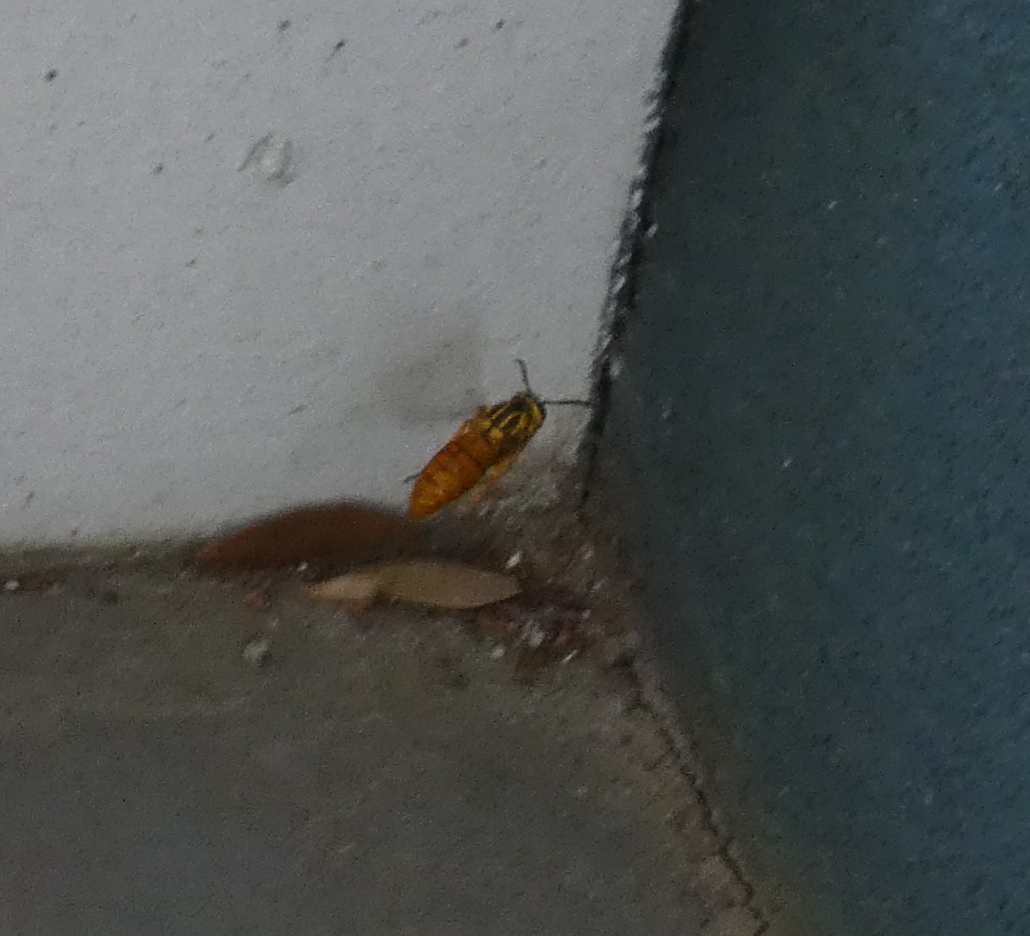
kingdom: Animalia
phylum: Arthropoda
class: Insecta
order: Hymenoptera
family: Vespidae
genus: Vespula
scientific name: Vespula squamosa
